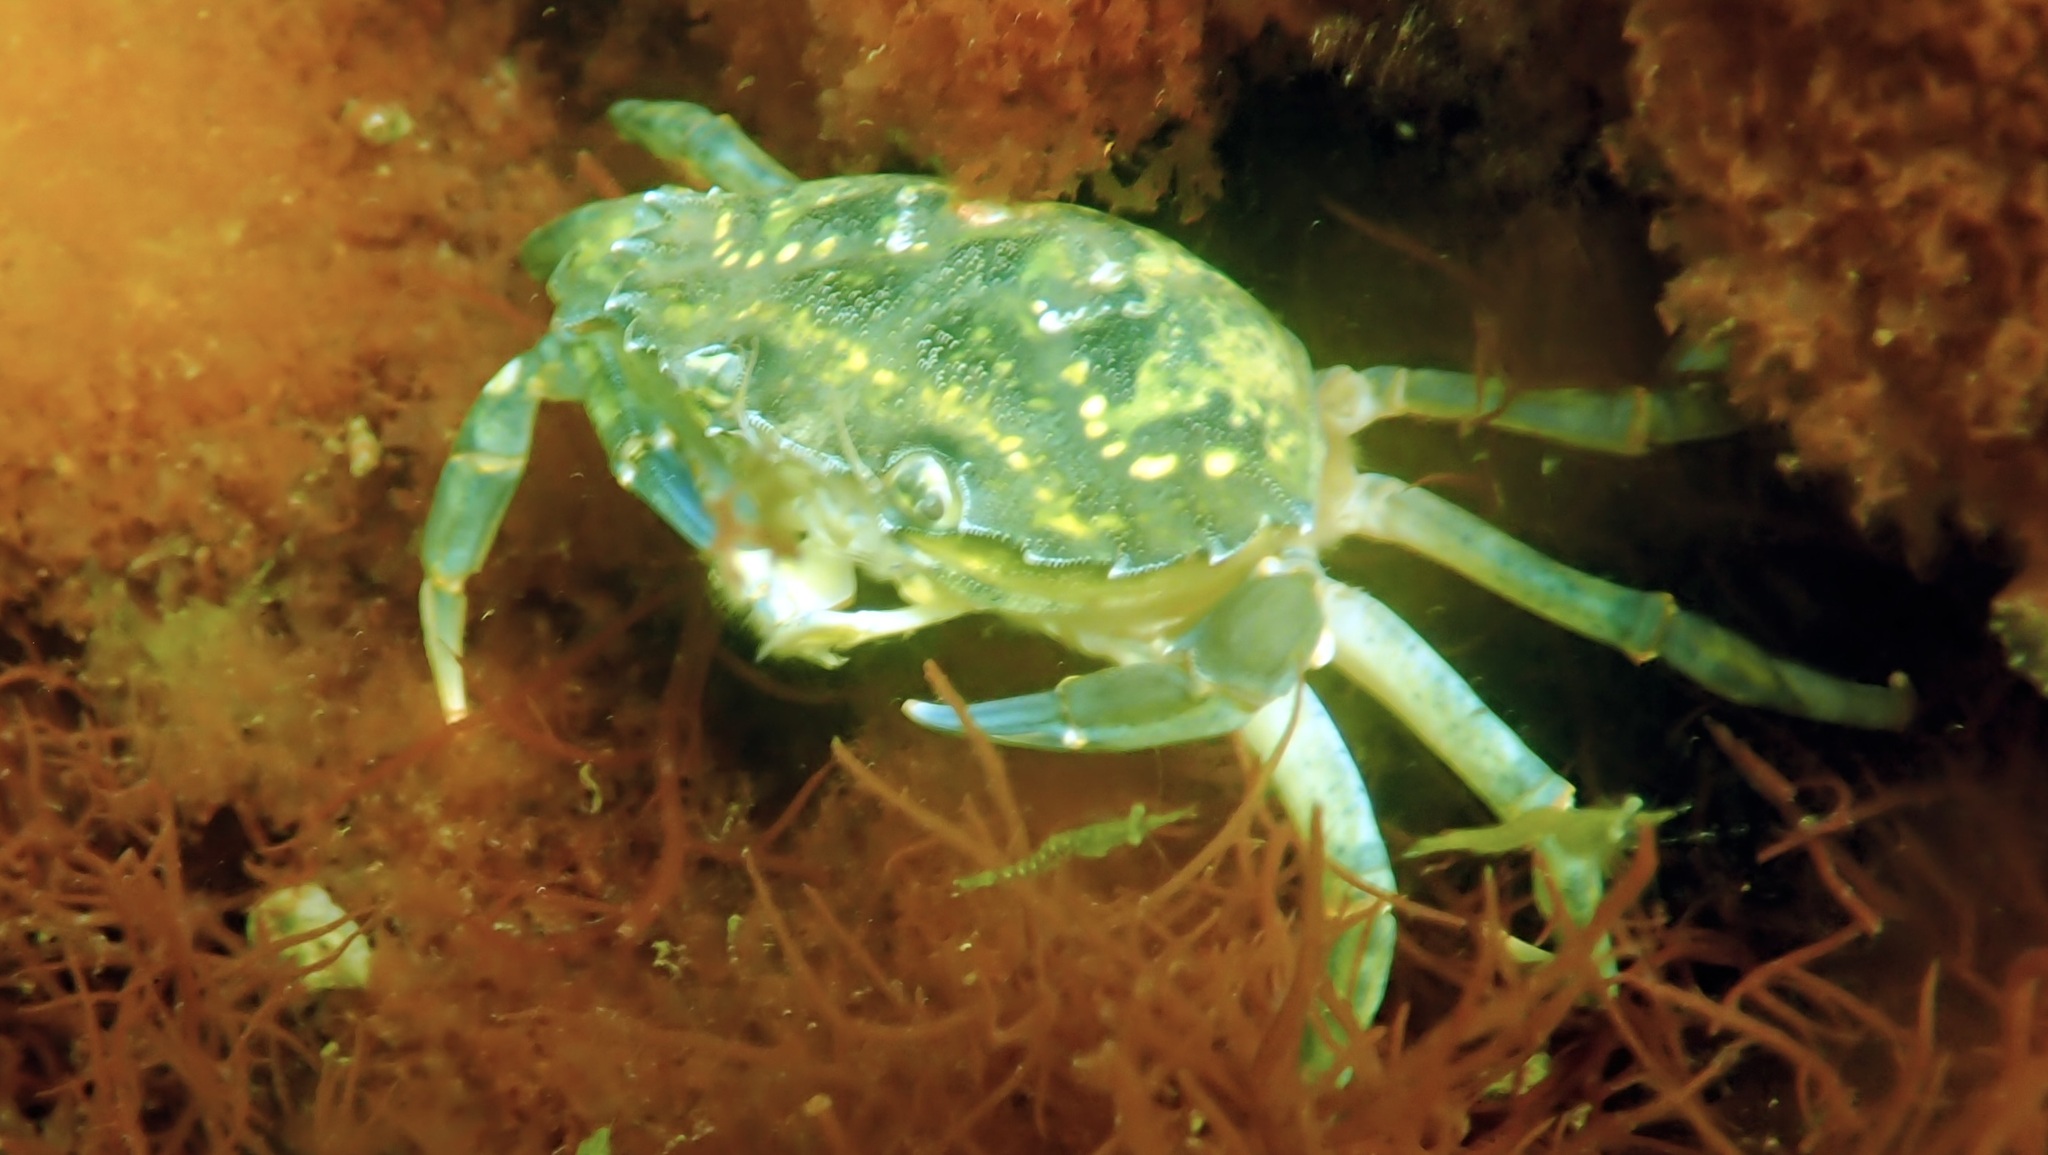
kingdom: Animalia
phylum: Arthropoda
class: Malacostraca
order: Decapoda
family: Carcinidae
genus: Carcinus
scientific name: Carcinus maenas
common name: European green crab
